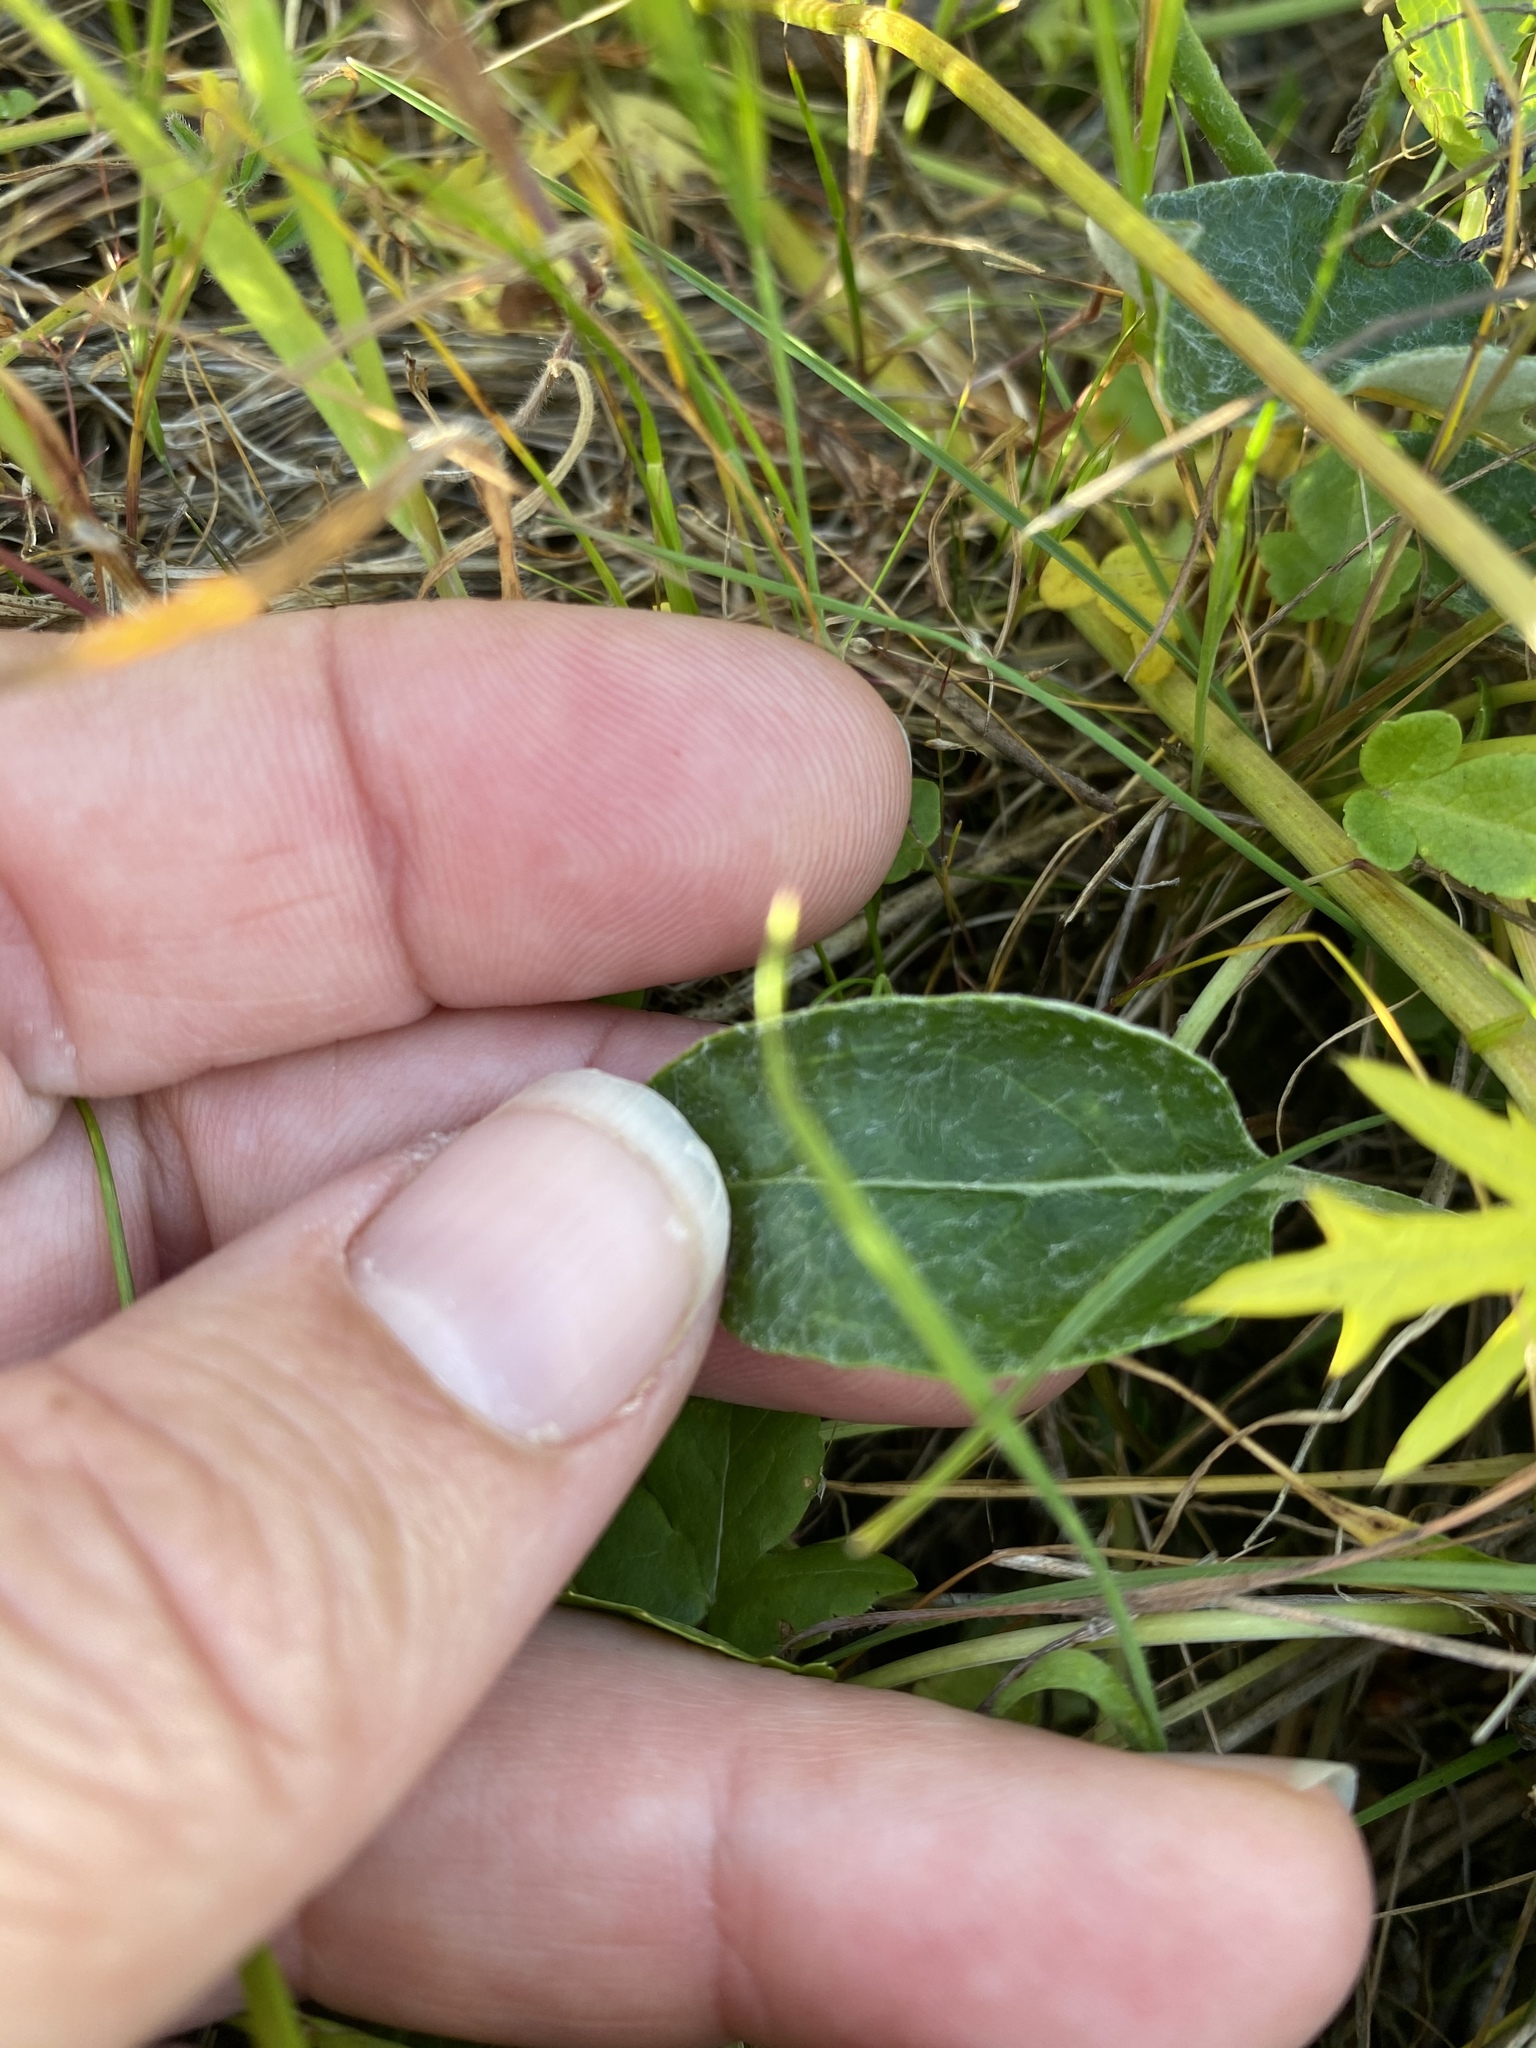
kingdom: Plantae
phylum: Tracheophyta
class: Magnoliopsida
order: Caryophyllales
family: Polygonaceae
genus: Eriogonum
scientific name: Eriogonum nudum
